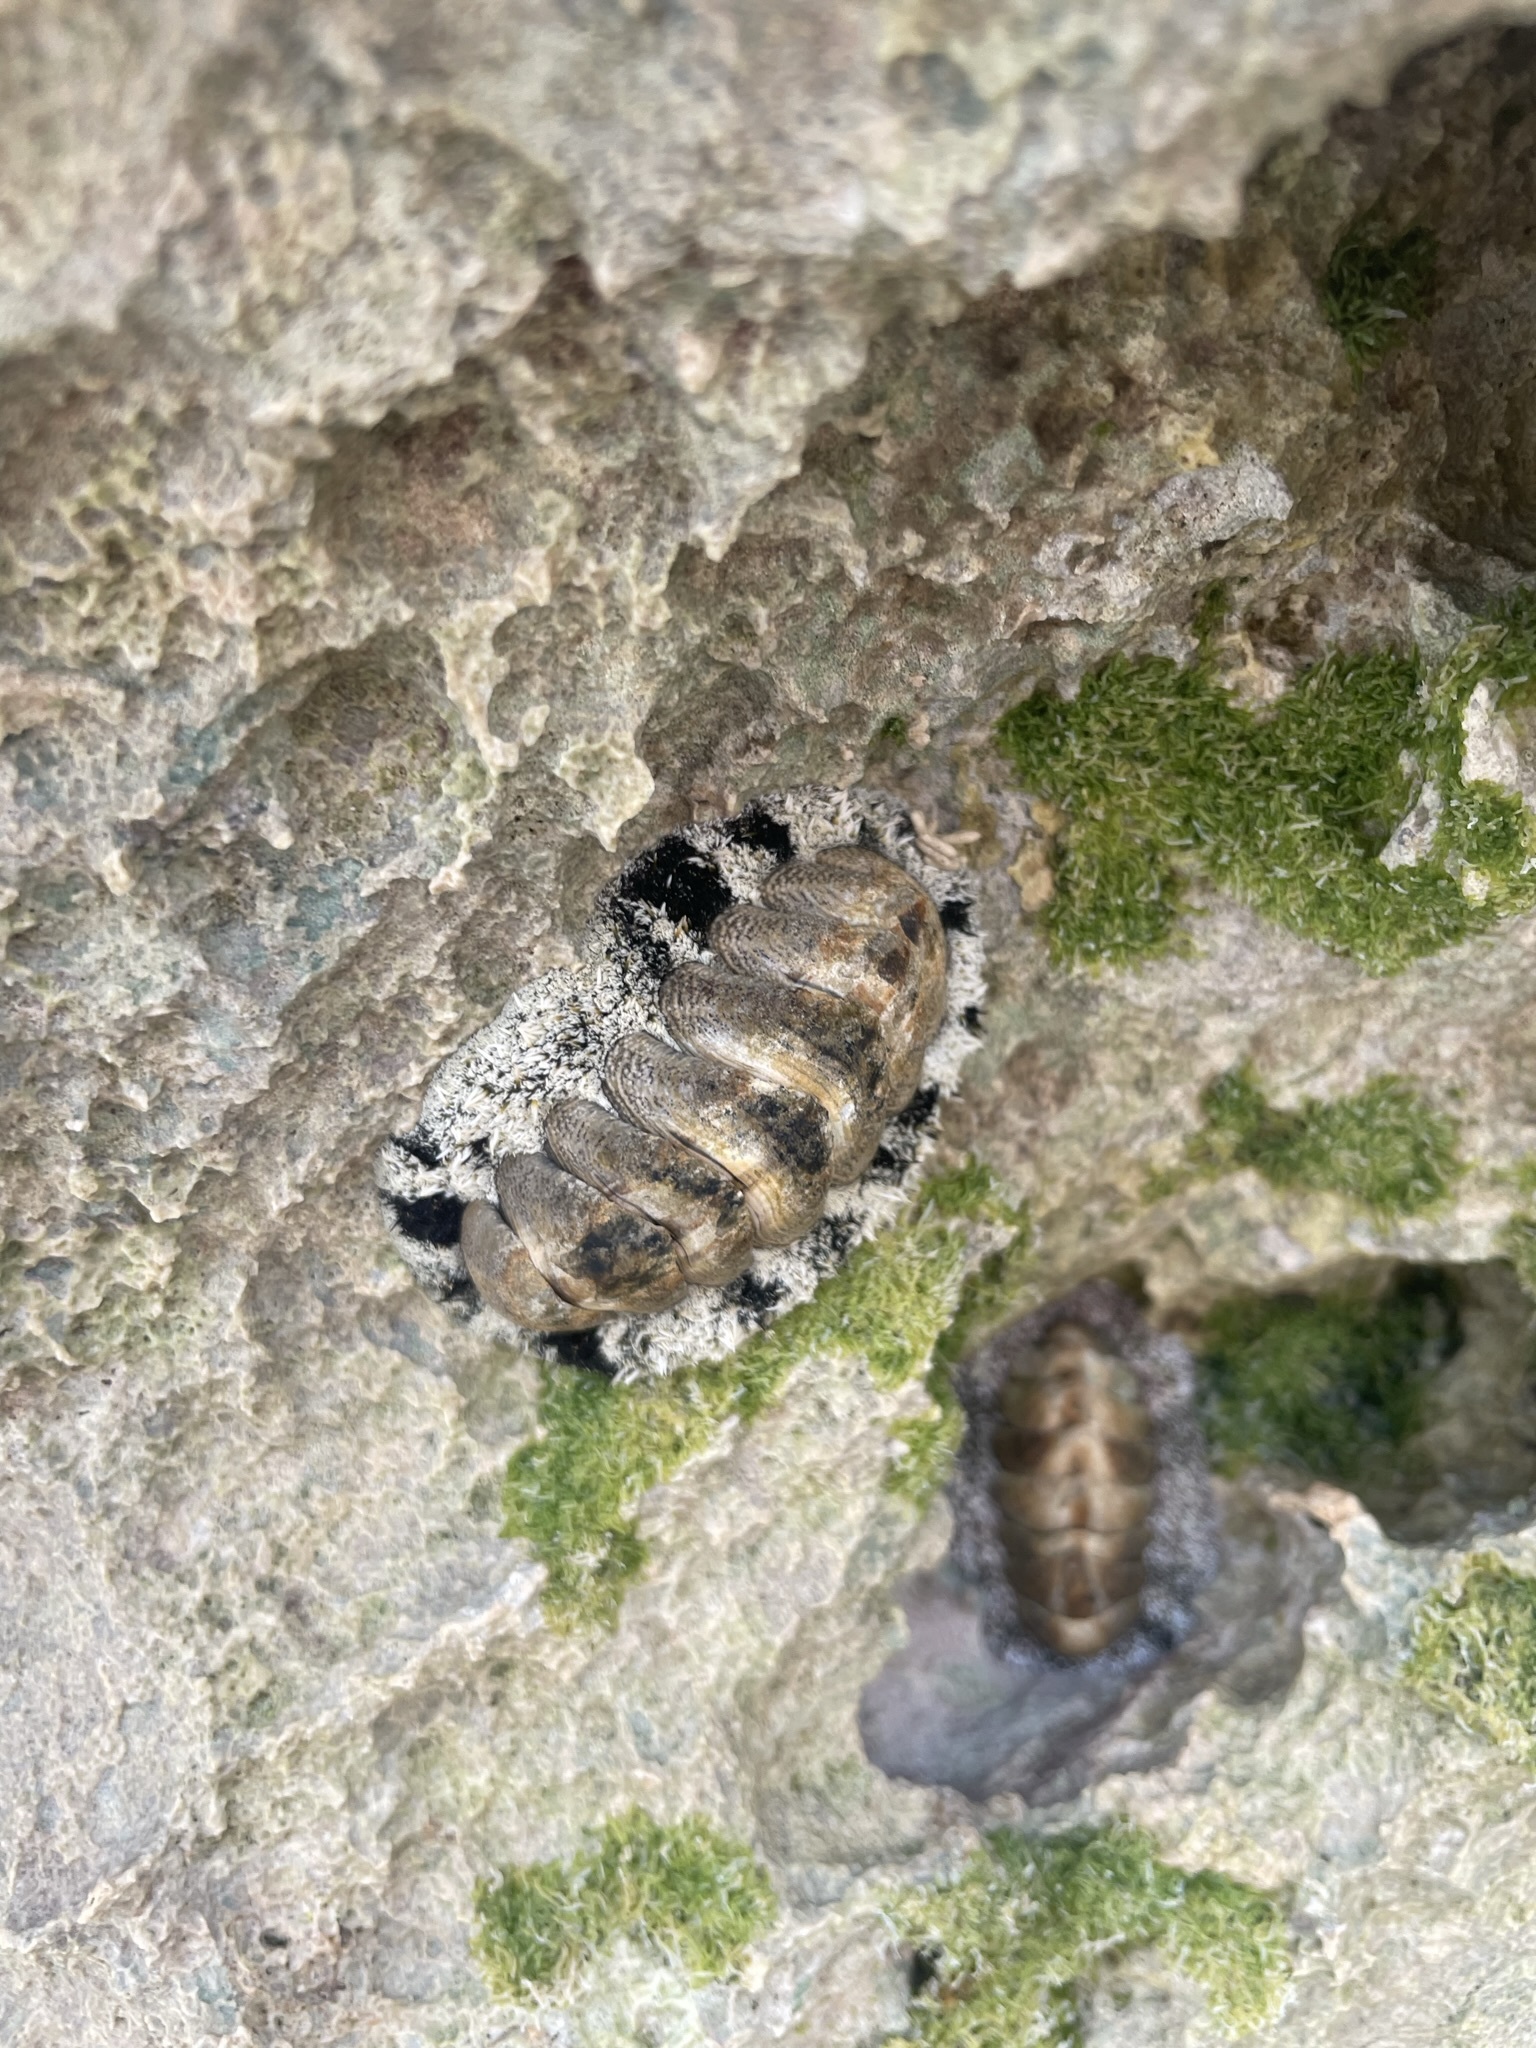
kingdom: Animalia
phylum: Mollusca
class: Polyplacophora
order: Chitonida
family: Chitonidae
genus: Acanthopleura
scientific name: Acanthopleura granulata
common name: West indian fuzzy chiton
